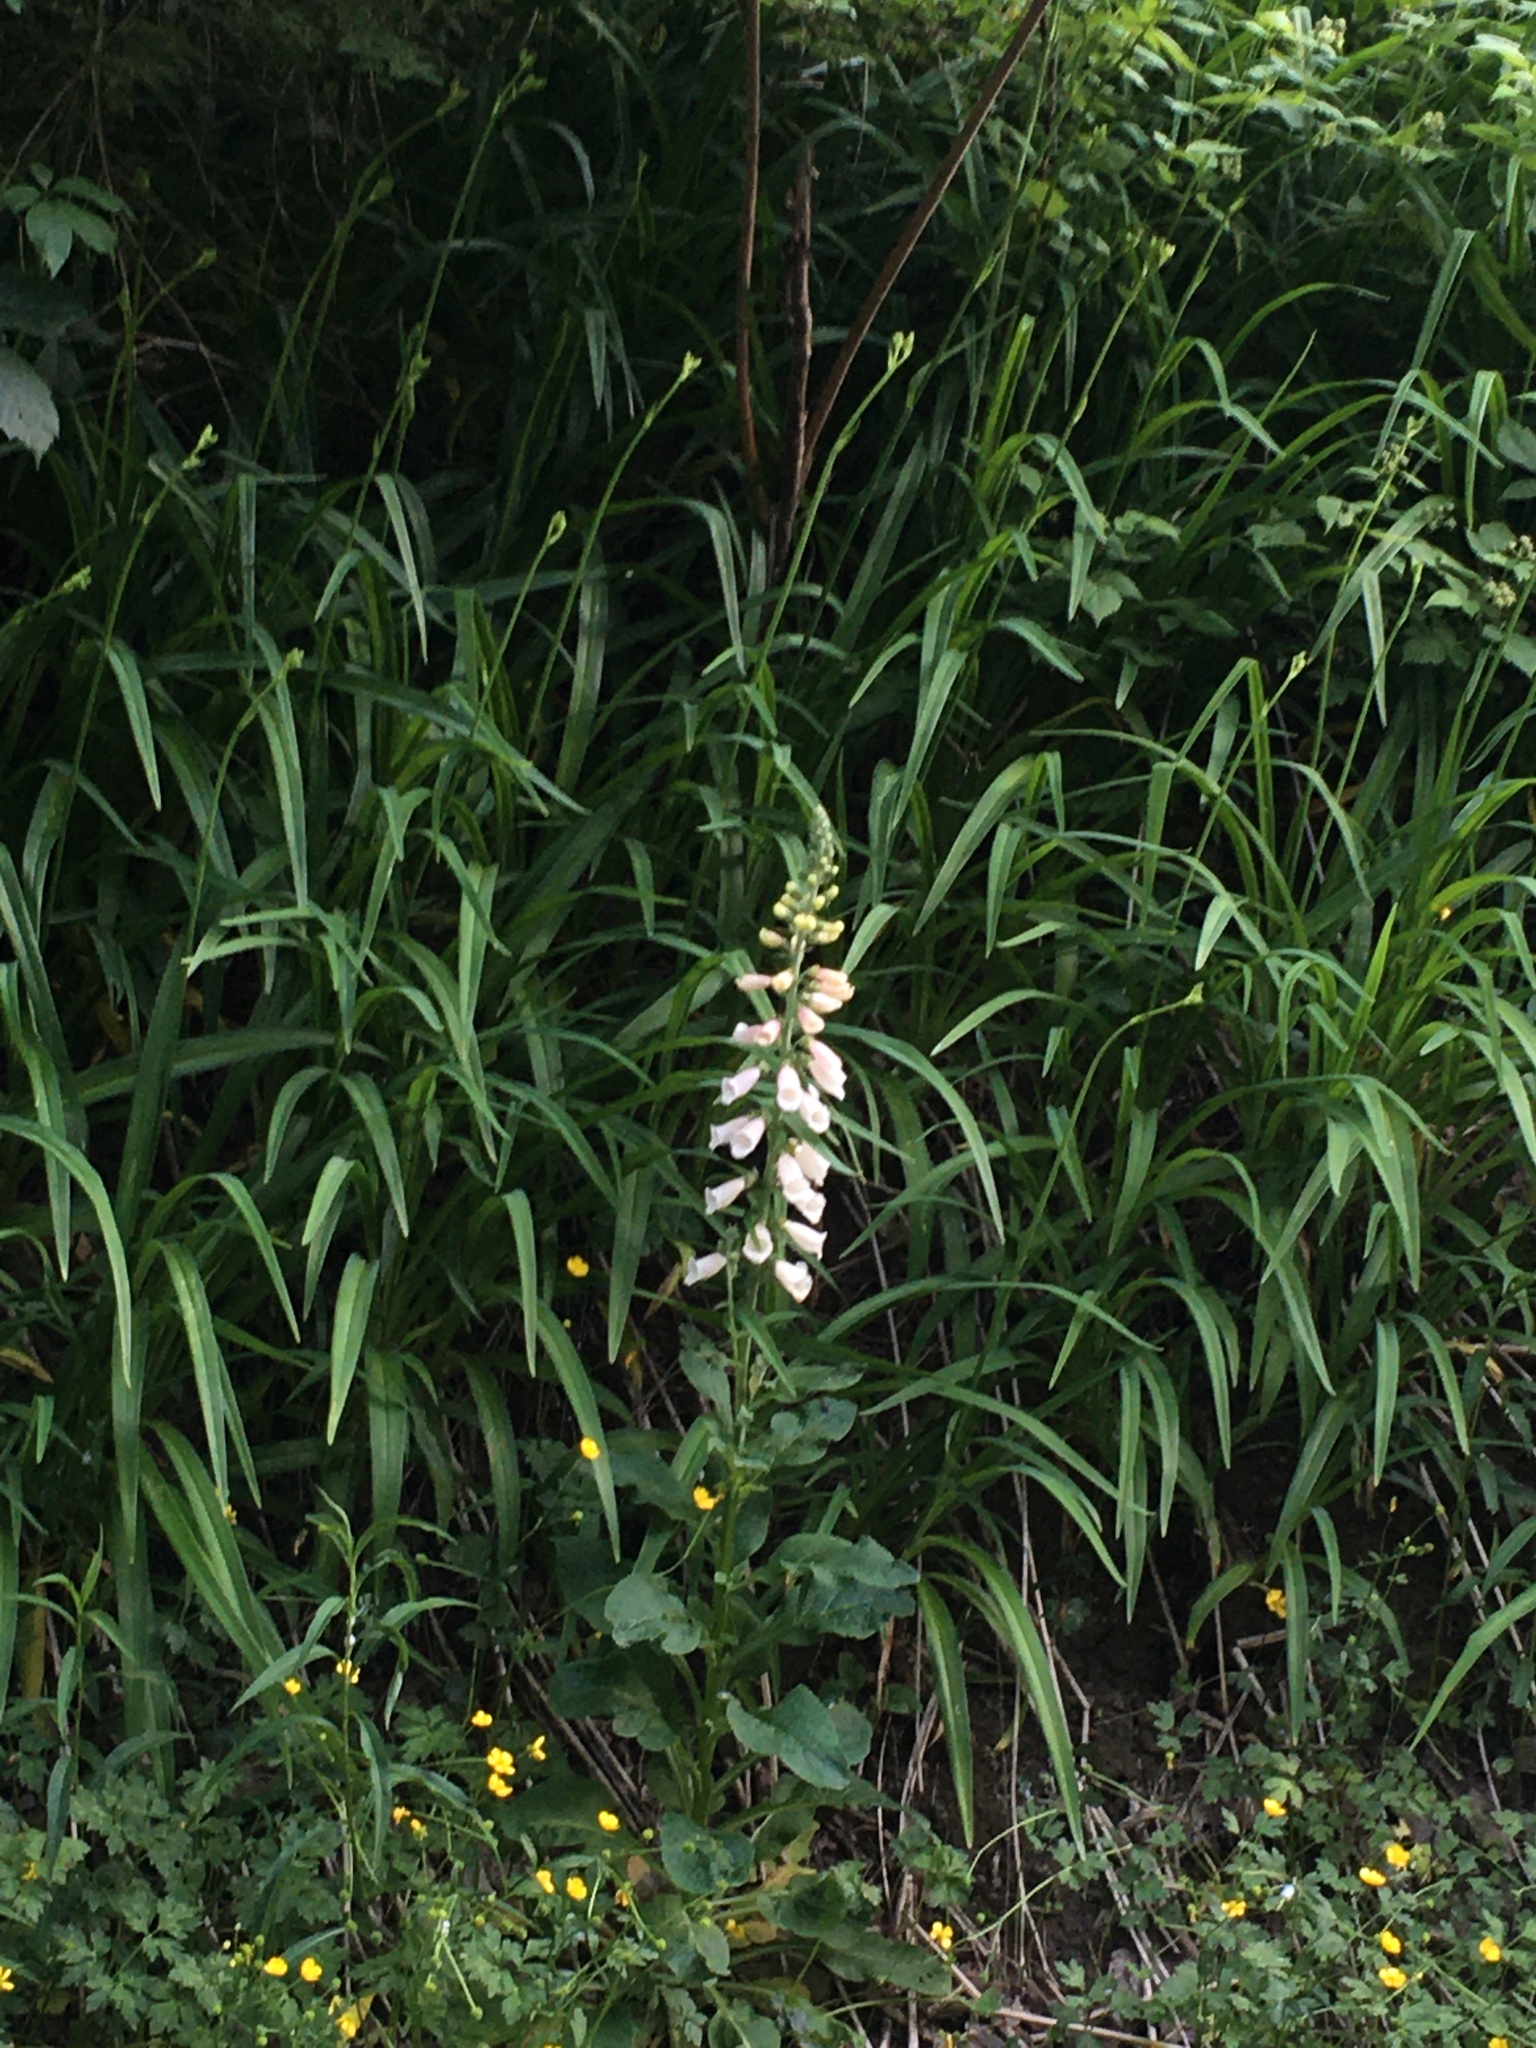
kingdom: Plantae
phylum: Tracheophyta
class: Magnoliopsida
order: Lamiales
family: Plantaginaceae
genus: Digitalis
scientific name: Digitalis purpurea
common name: Foxglove
